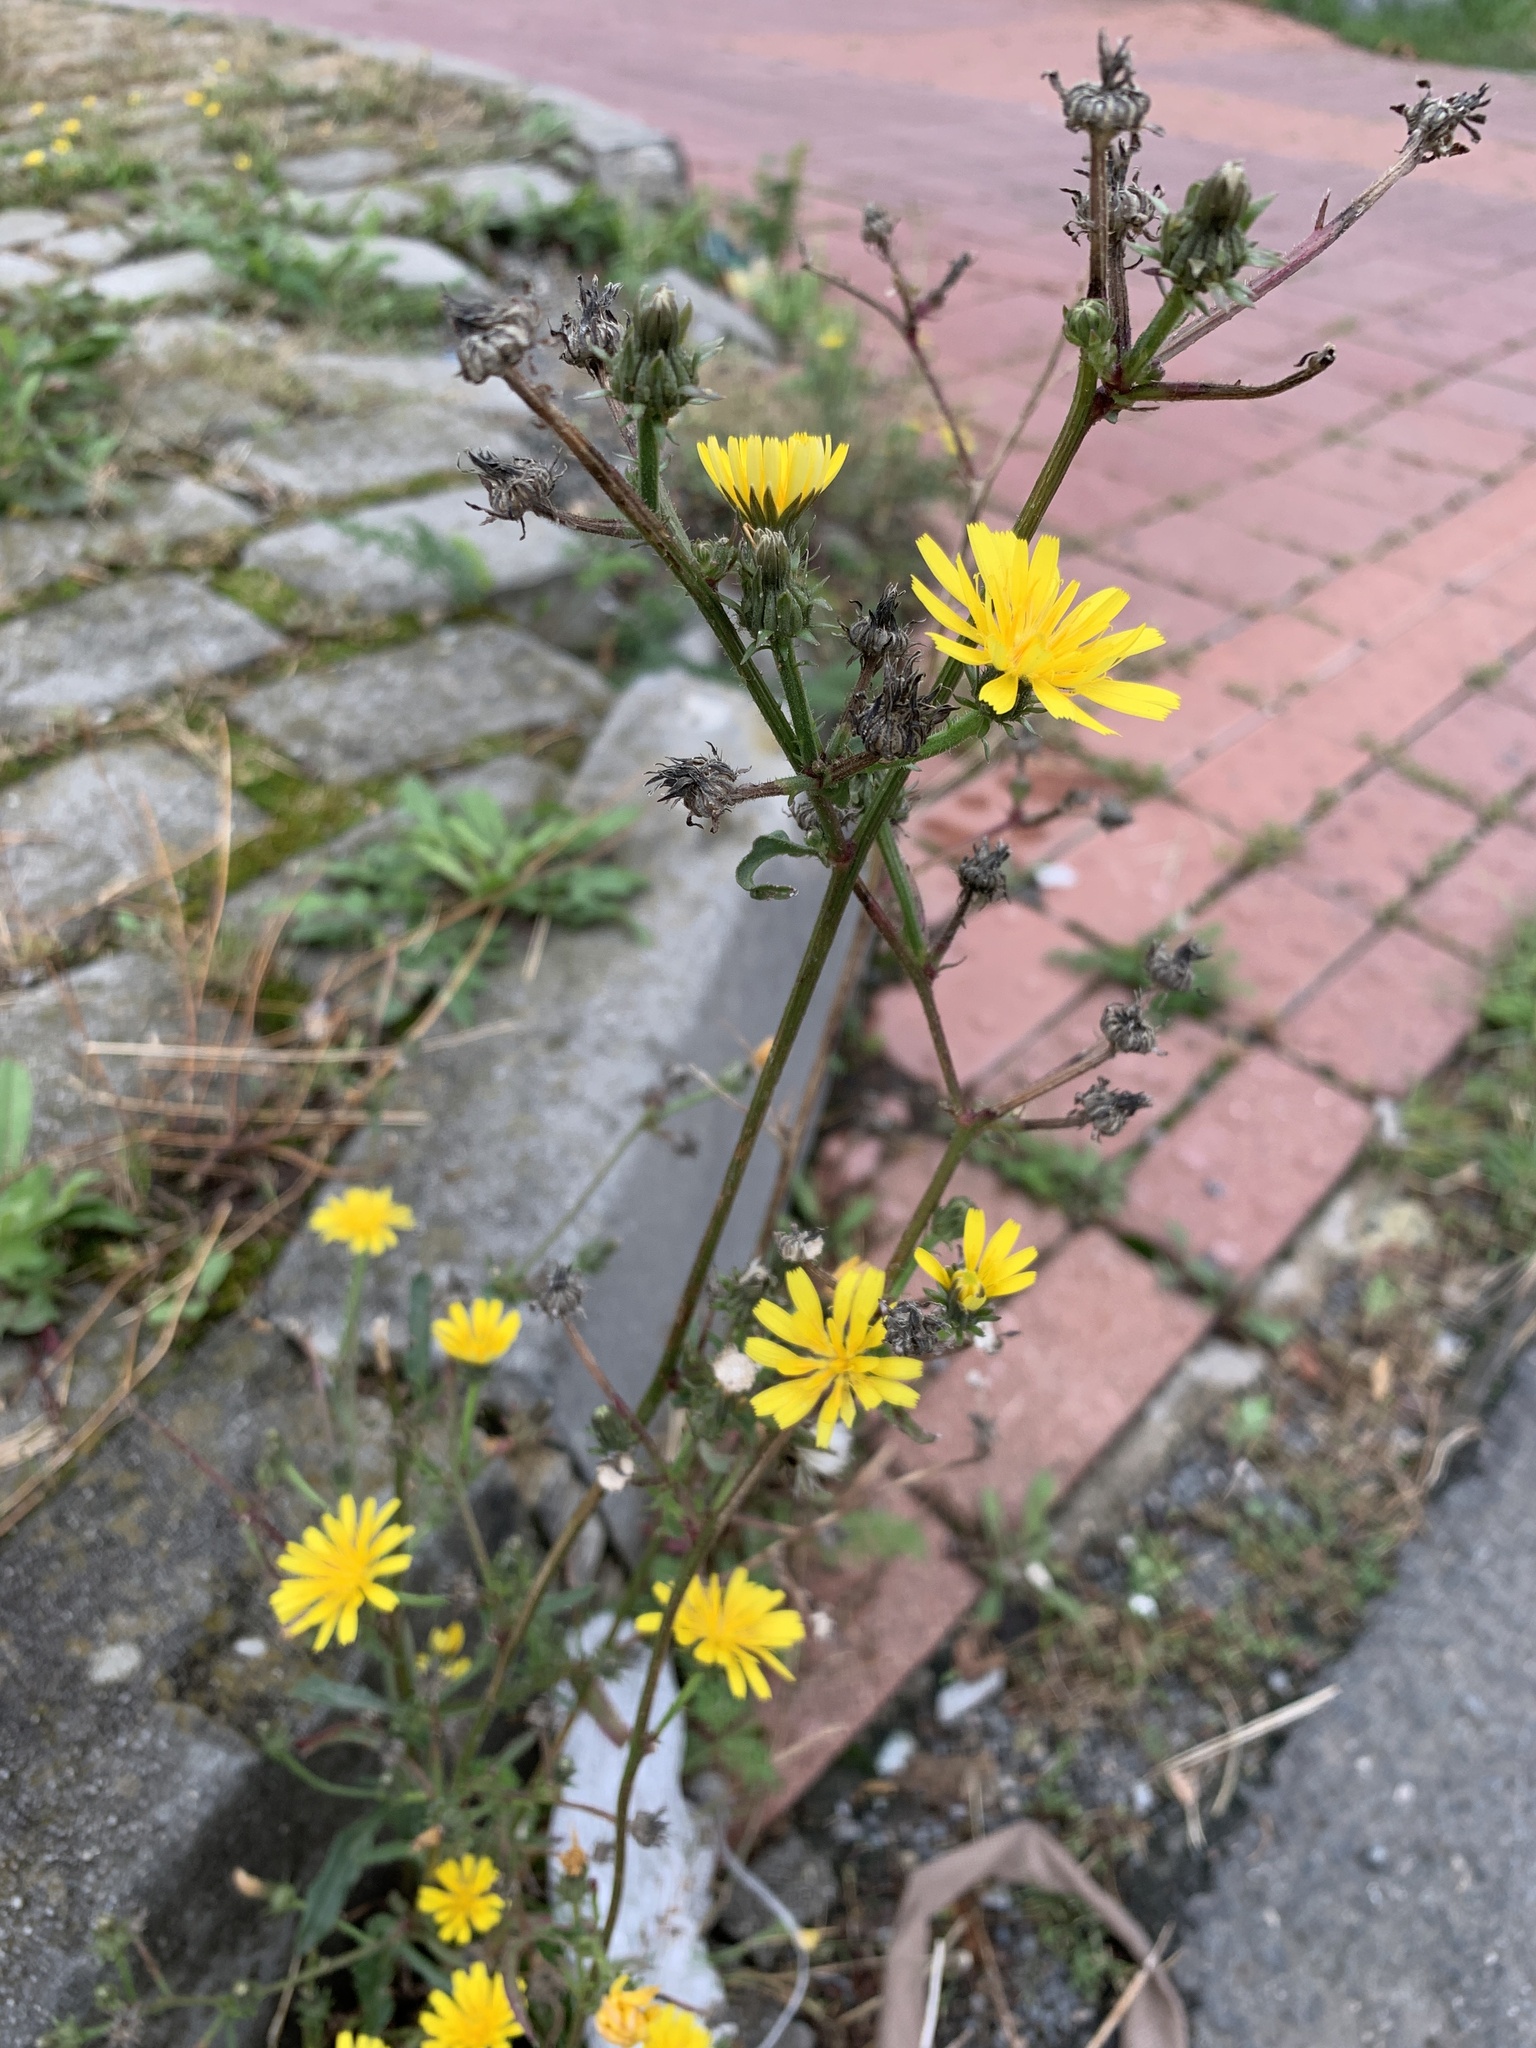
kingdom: Plantae
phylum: Tracheophyta
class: Magnoliopsida
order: Asterales
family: Asteraceae
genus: Picris
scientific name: Picris hieracioides
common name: Hawkweed oxtongue
